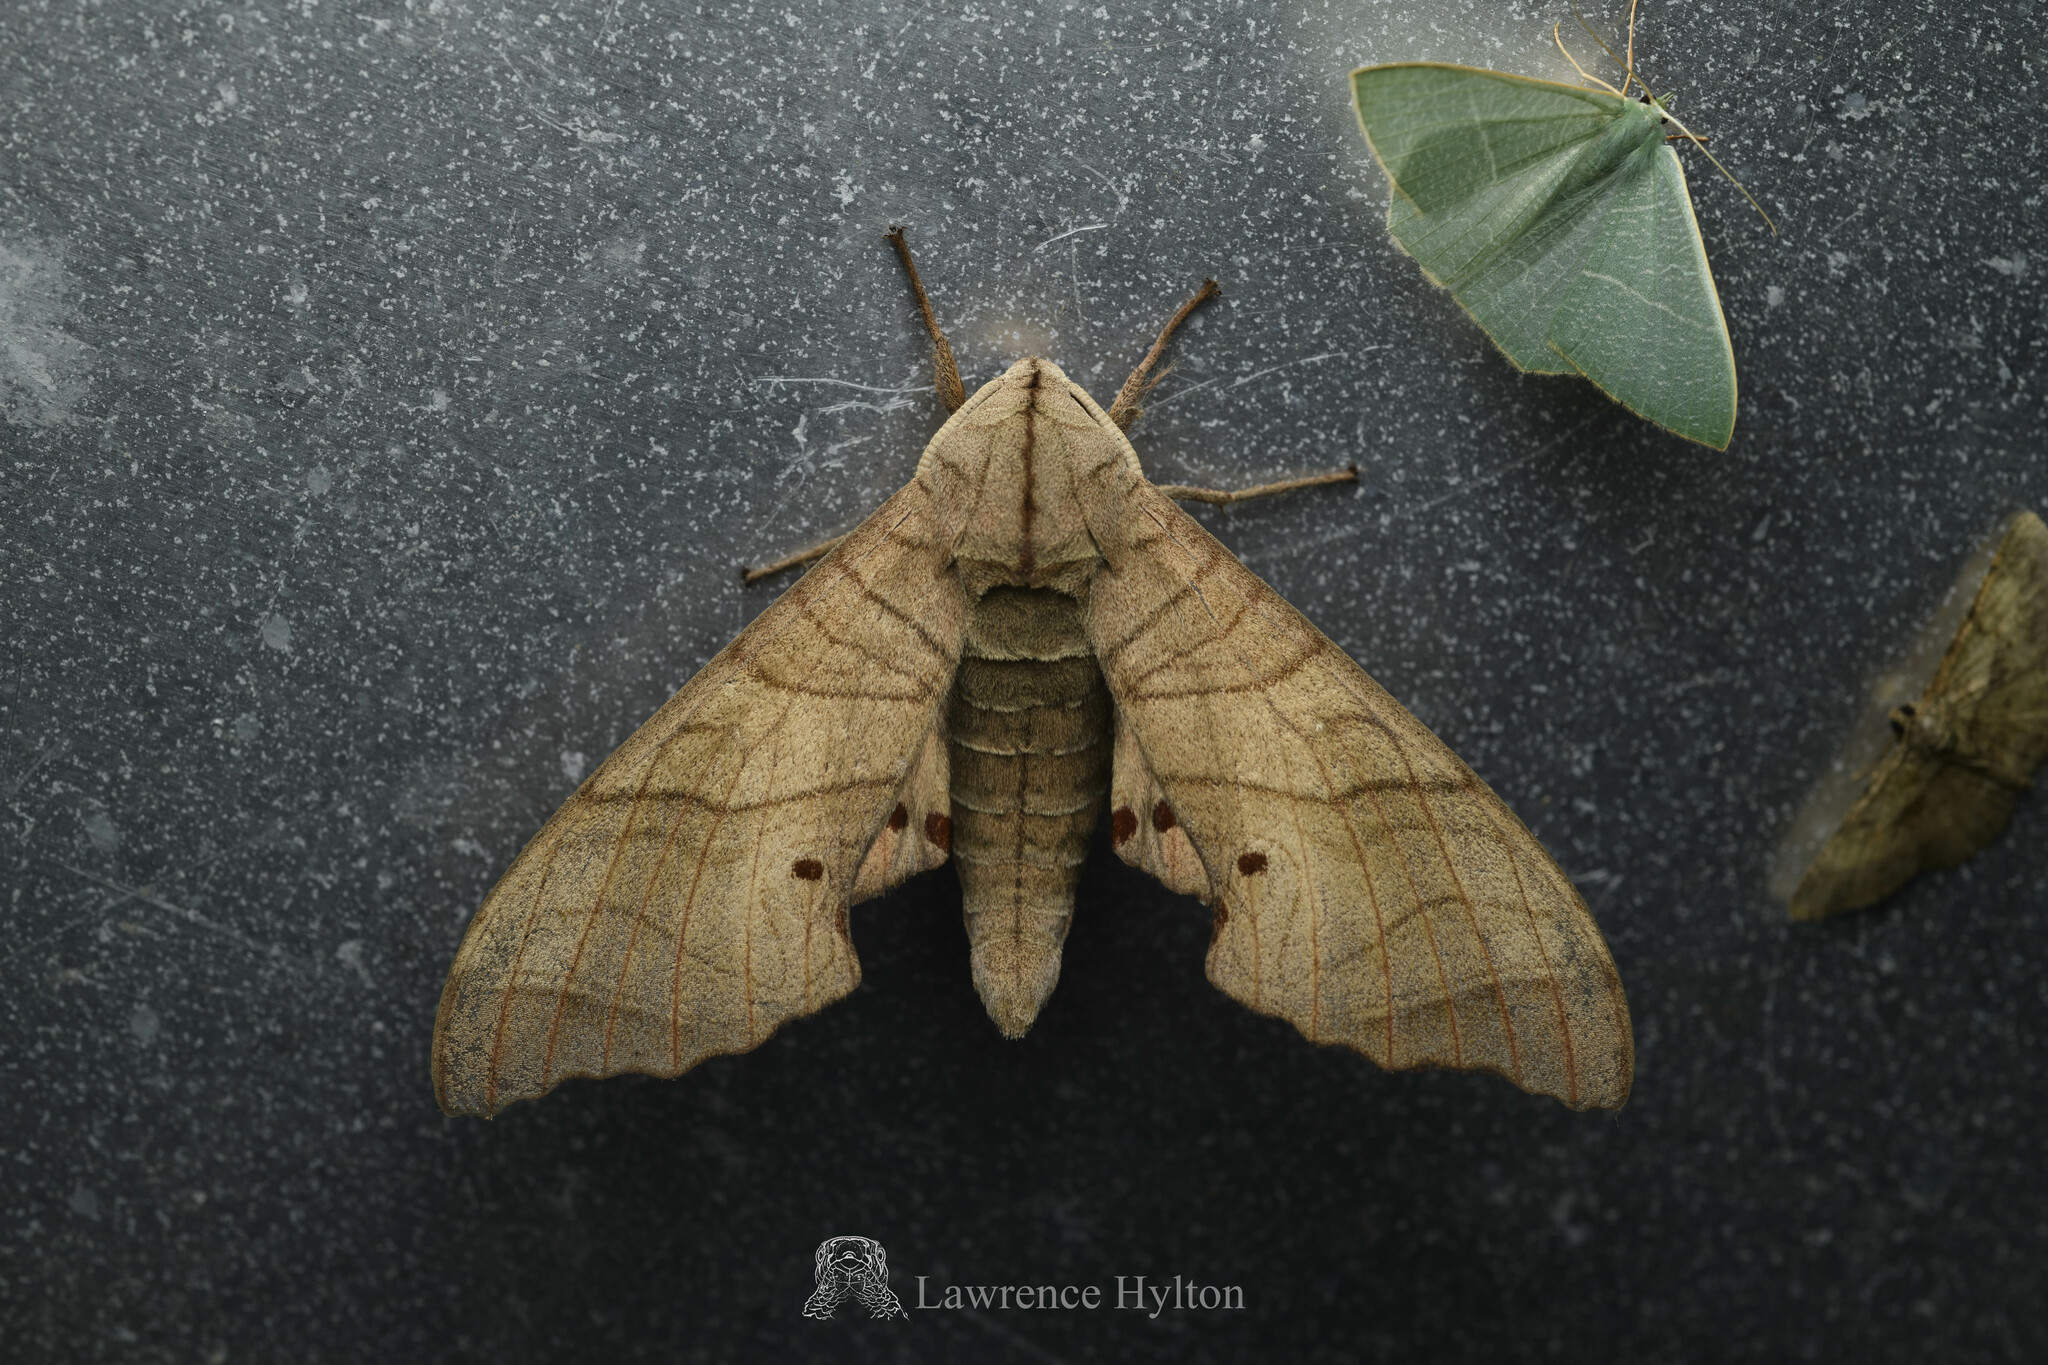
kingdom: Animalia
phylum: Arthropoda
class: Insecta
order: Lepidoptera
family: Sphingidae
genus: Marumba
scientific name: Marumba dyras
